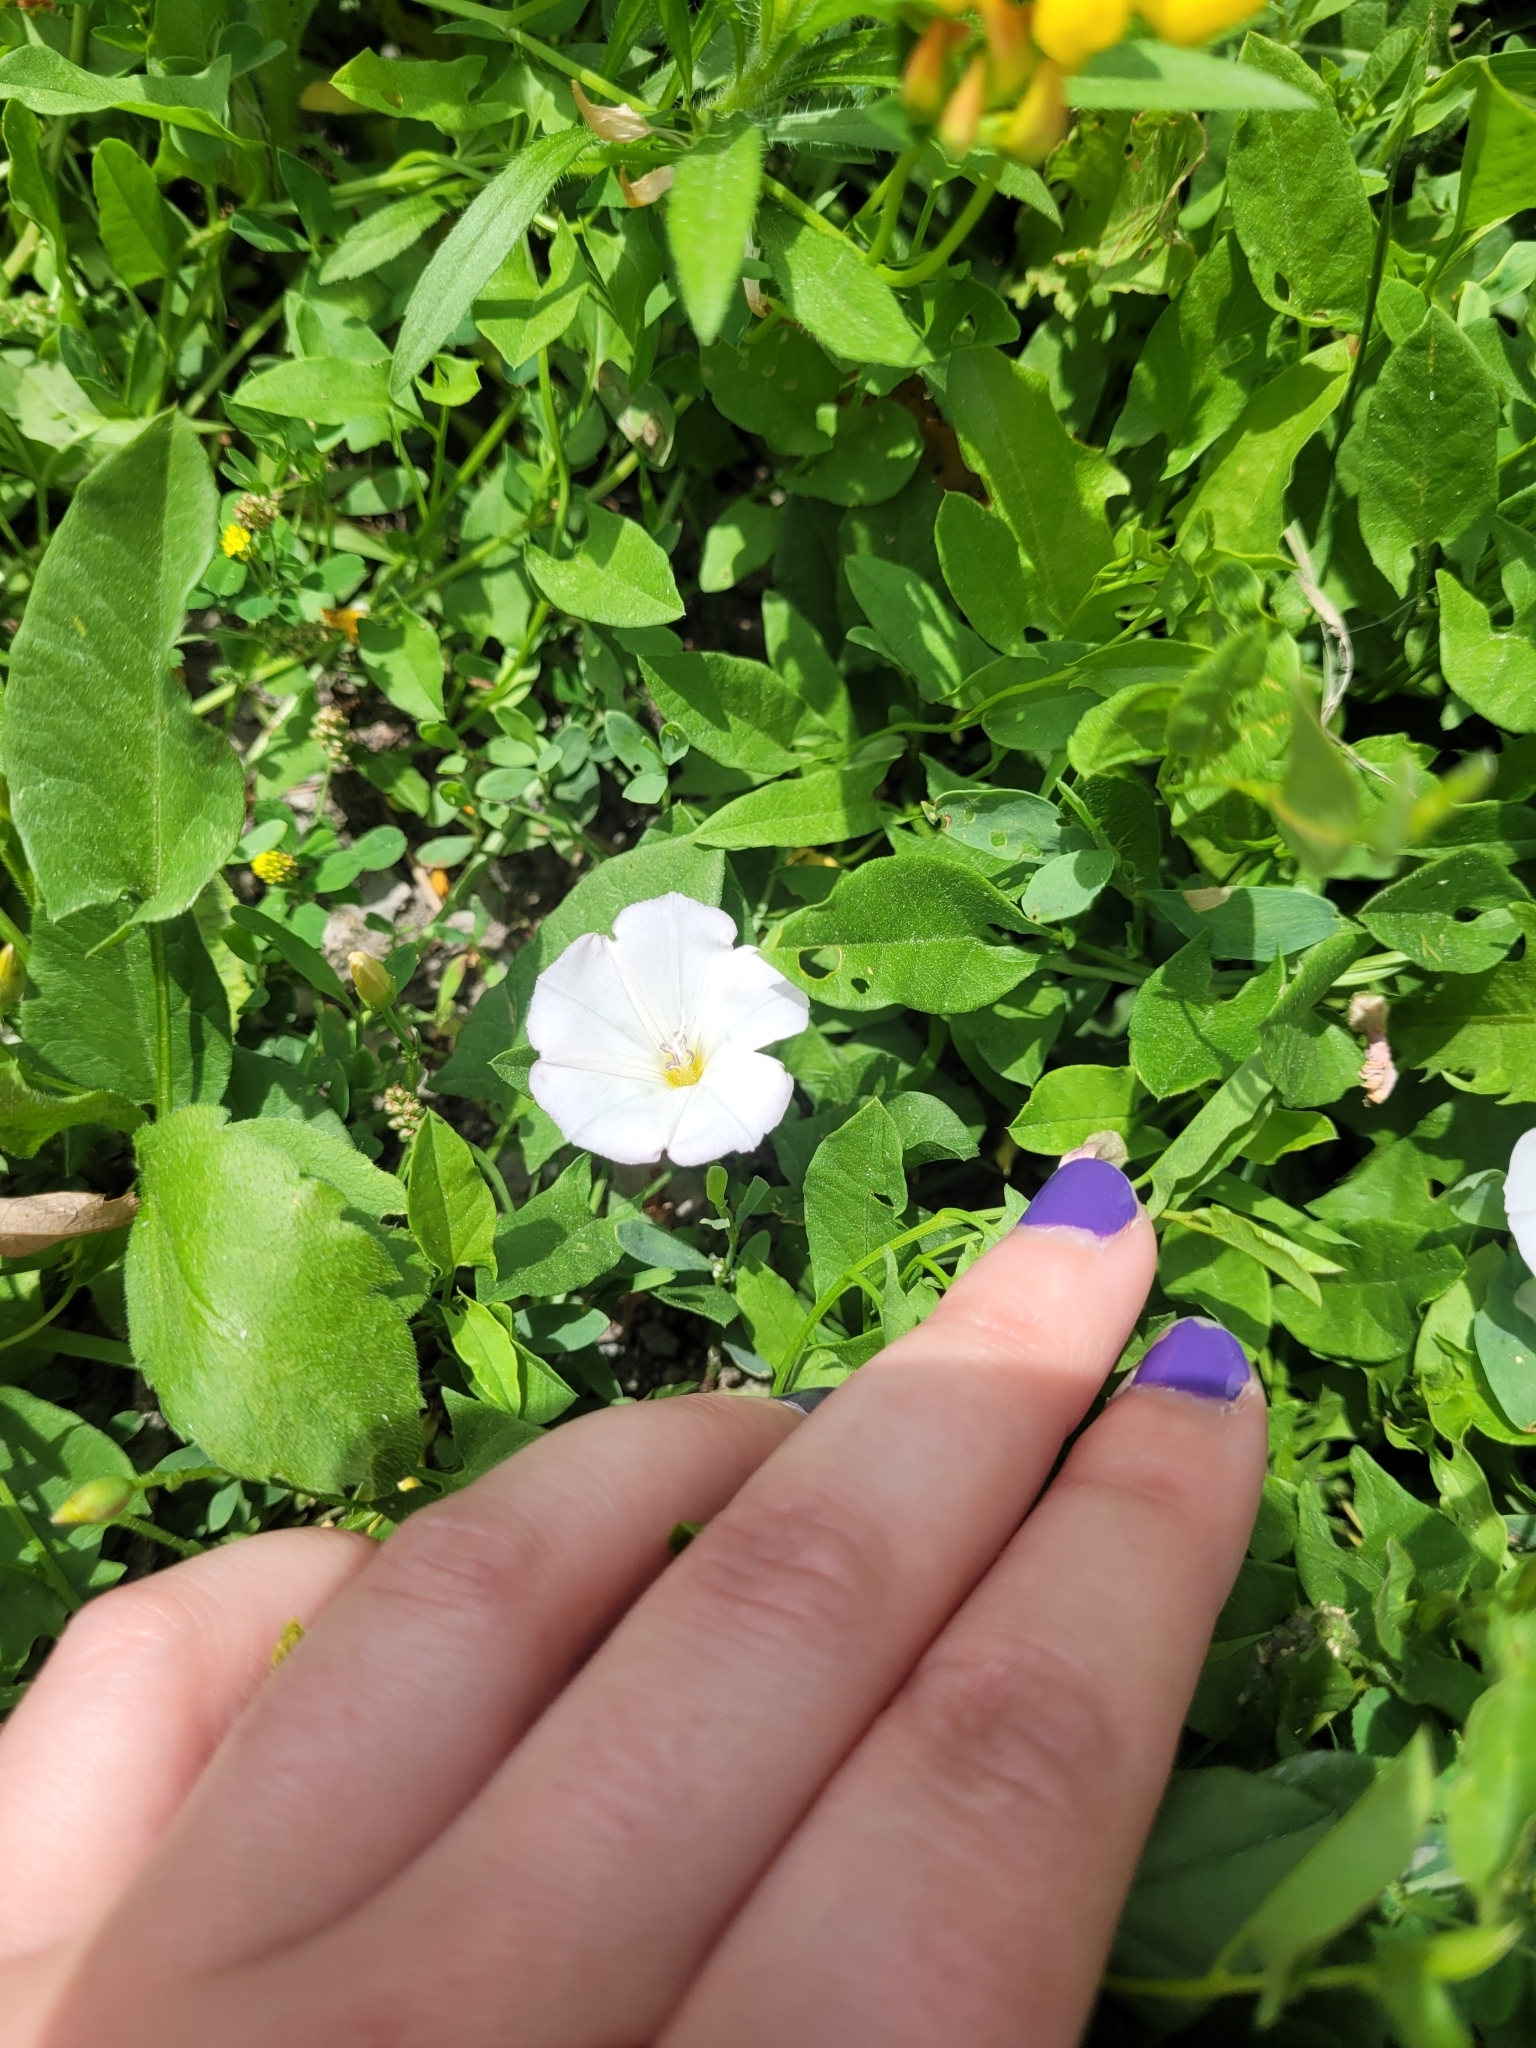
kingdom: Plantae
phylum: Tracheophyta
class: Magnoliopsida
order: Solanales
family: Convolvulaceae
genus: Convolvulus
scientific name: Convolvulus arvensis
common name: Field bindweed
